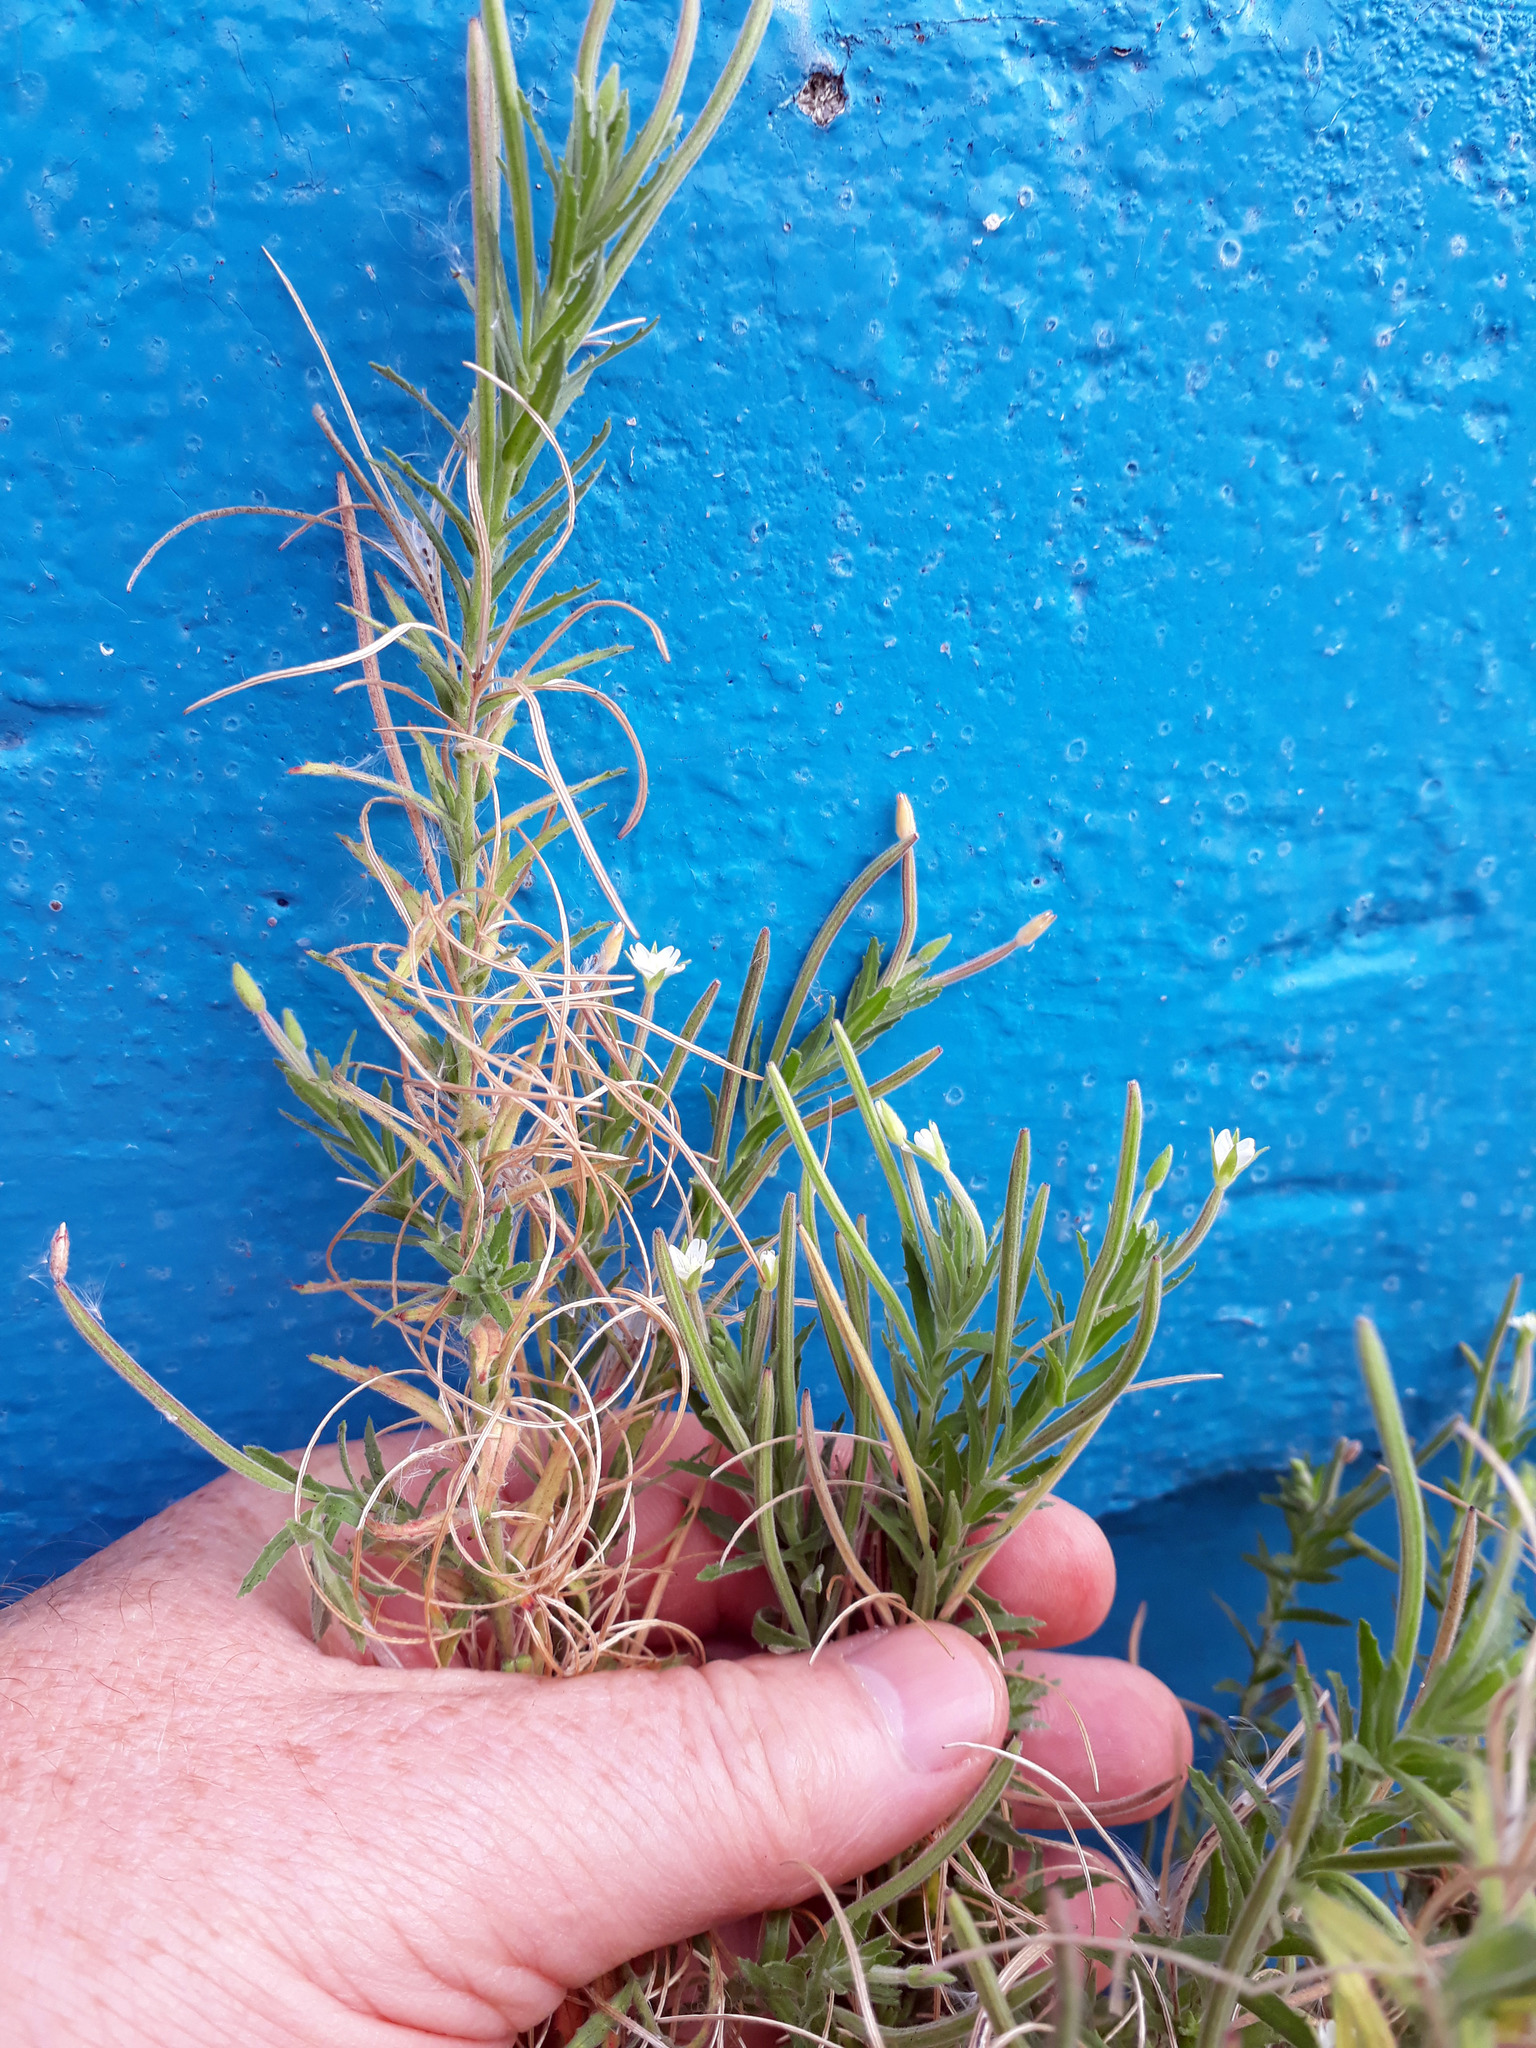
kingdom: Plantae
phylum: Tracheophyta
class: Magnoliopsida
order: Myrtales
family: Onagraceae
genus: Epilobium
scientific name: Epilobium hirtigerum
